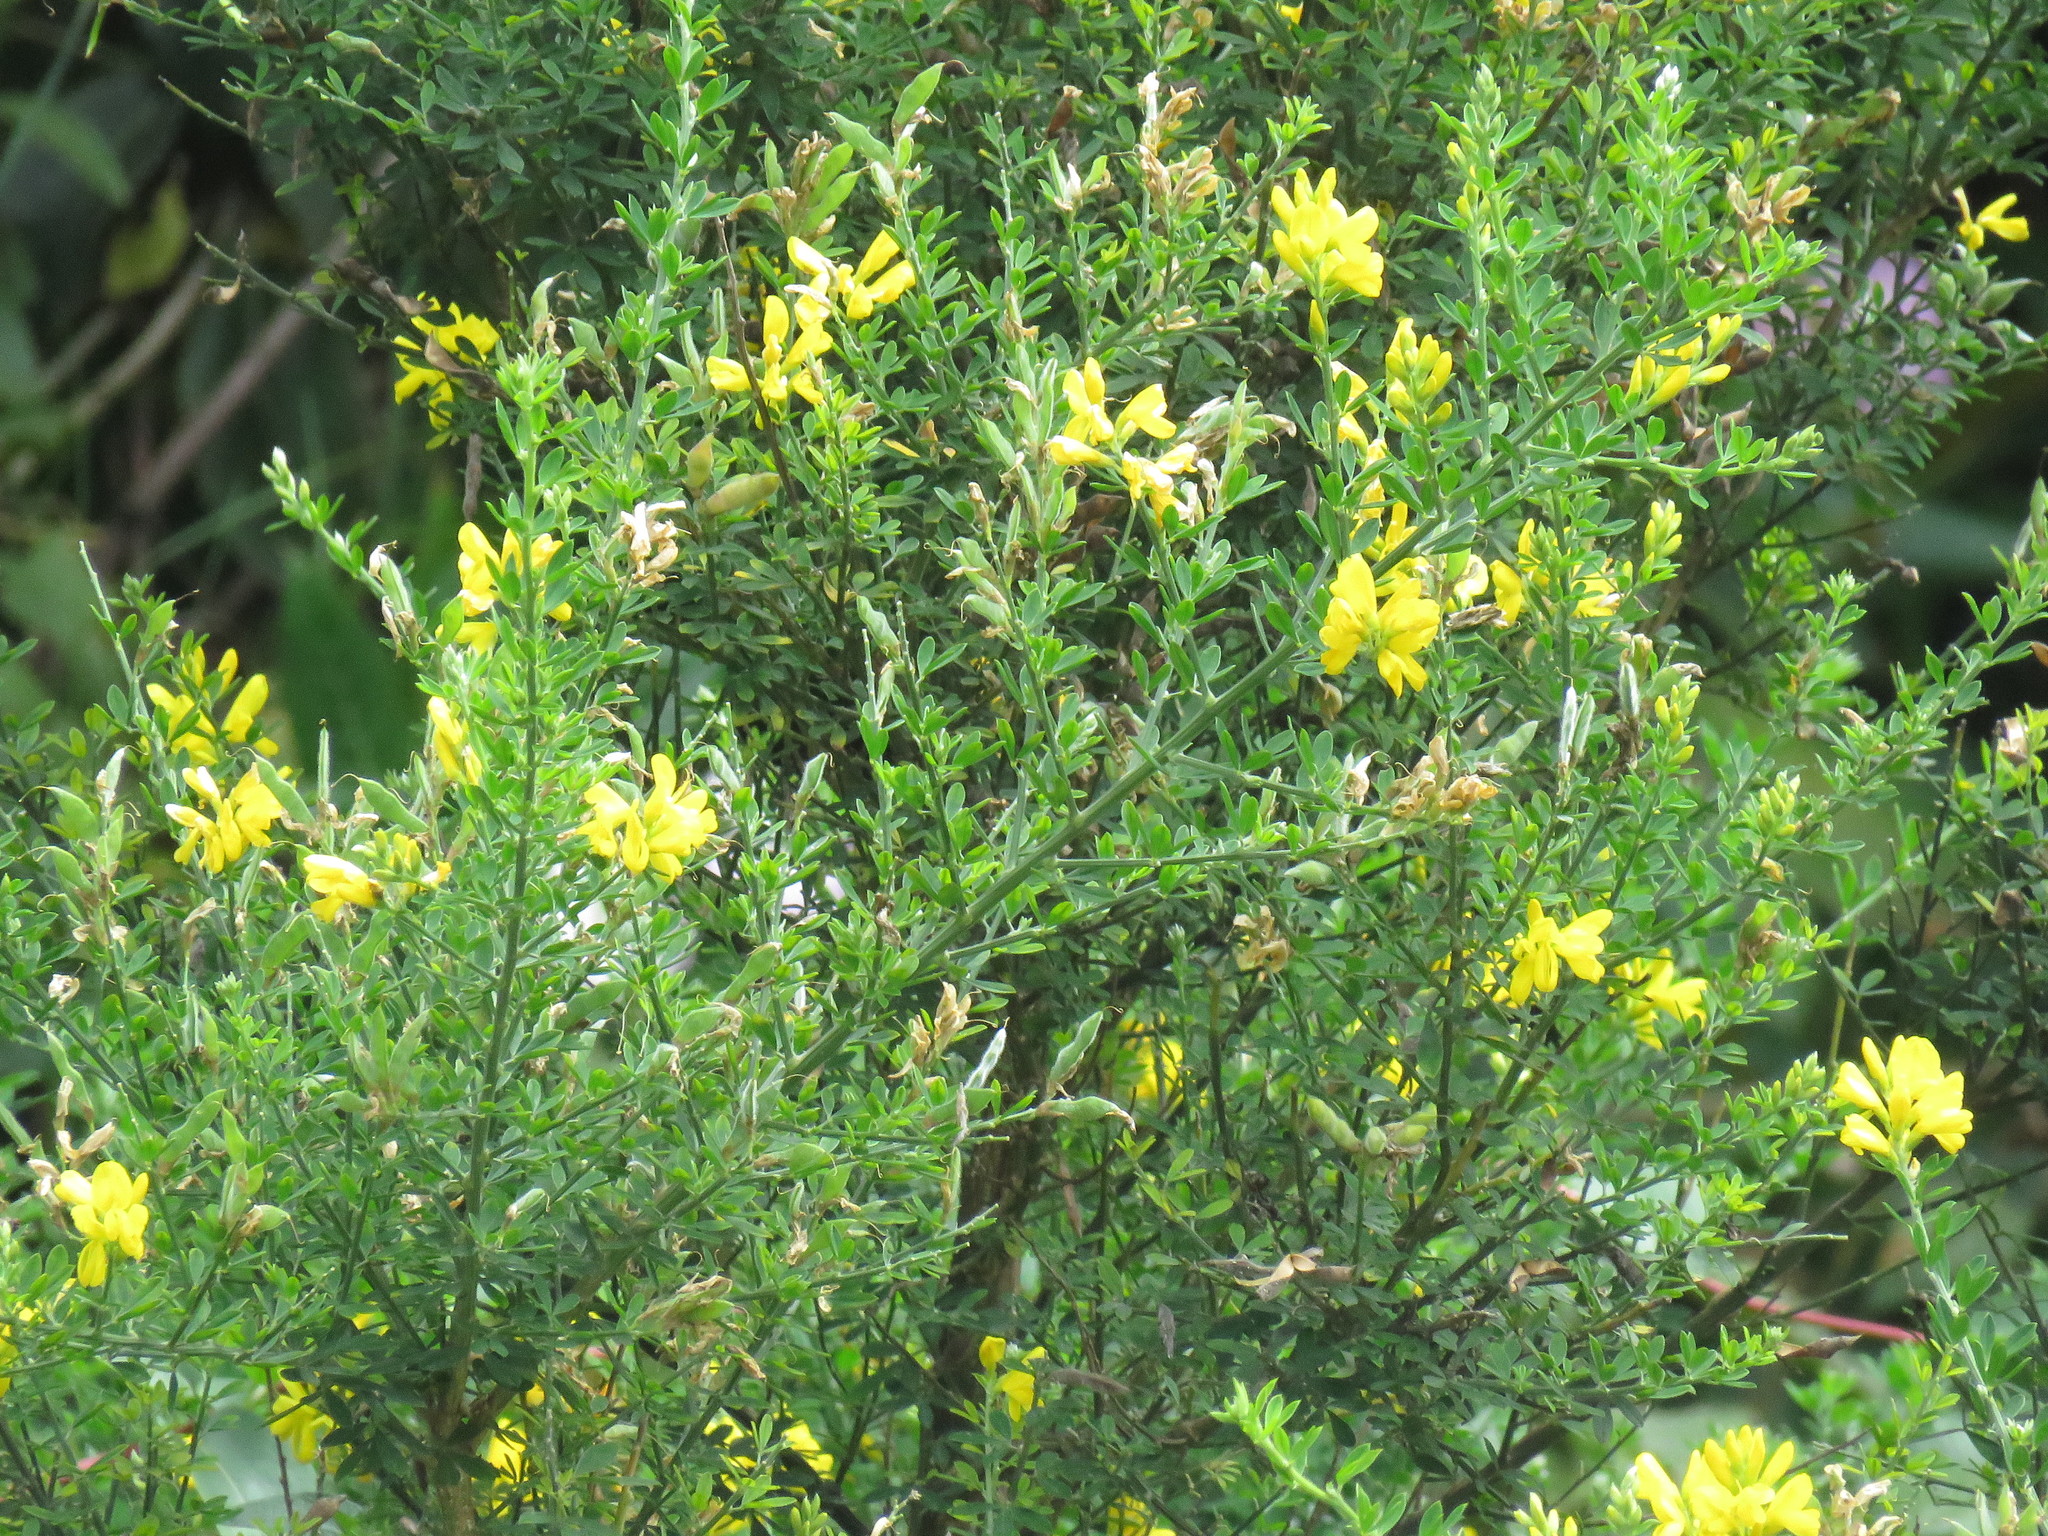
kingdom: Plantae
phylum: Tracheophyta
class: Magnoliopsida
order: Fabales
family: Fabaceae
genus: Genista
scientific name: Genista monspessulana
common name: Montpellier broom
